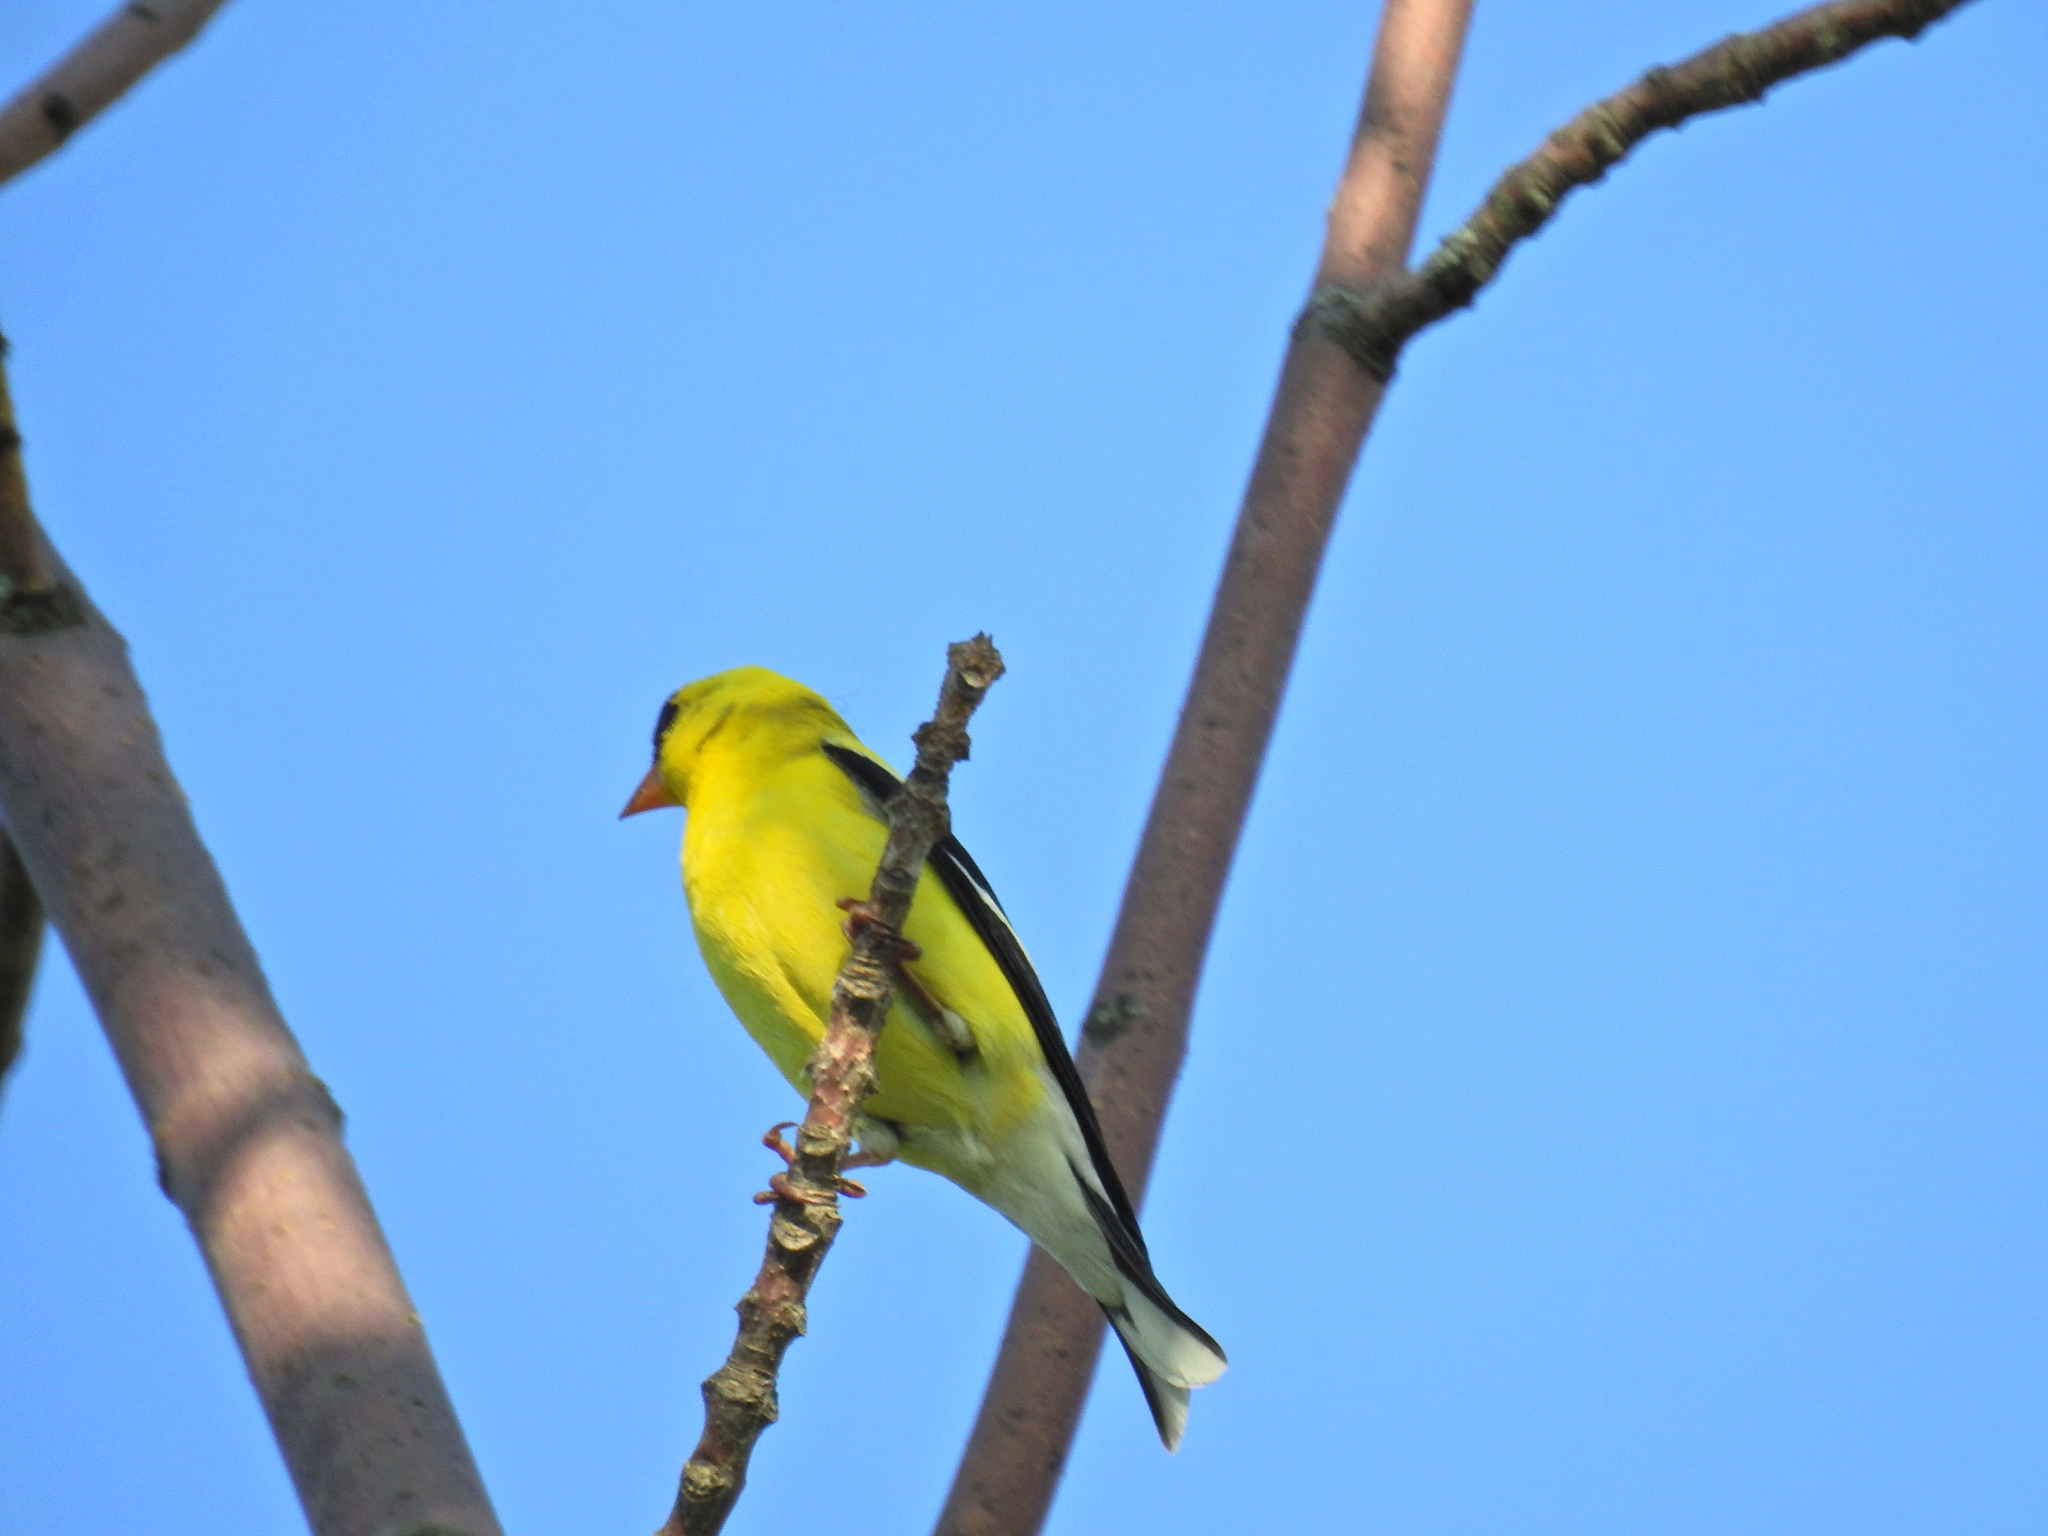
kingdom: Animalia
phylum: Chordata
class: Aves
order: Passeriformes
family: Fringillidae
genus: Spinus
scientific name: Spinus tristis
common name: American goldfinch
